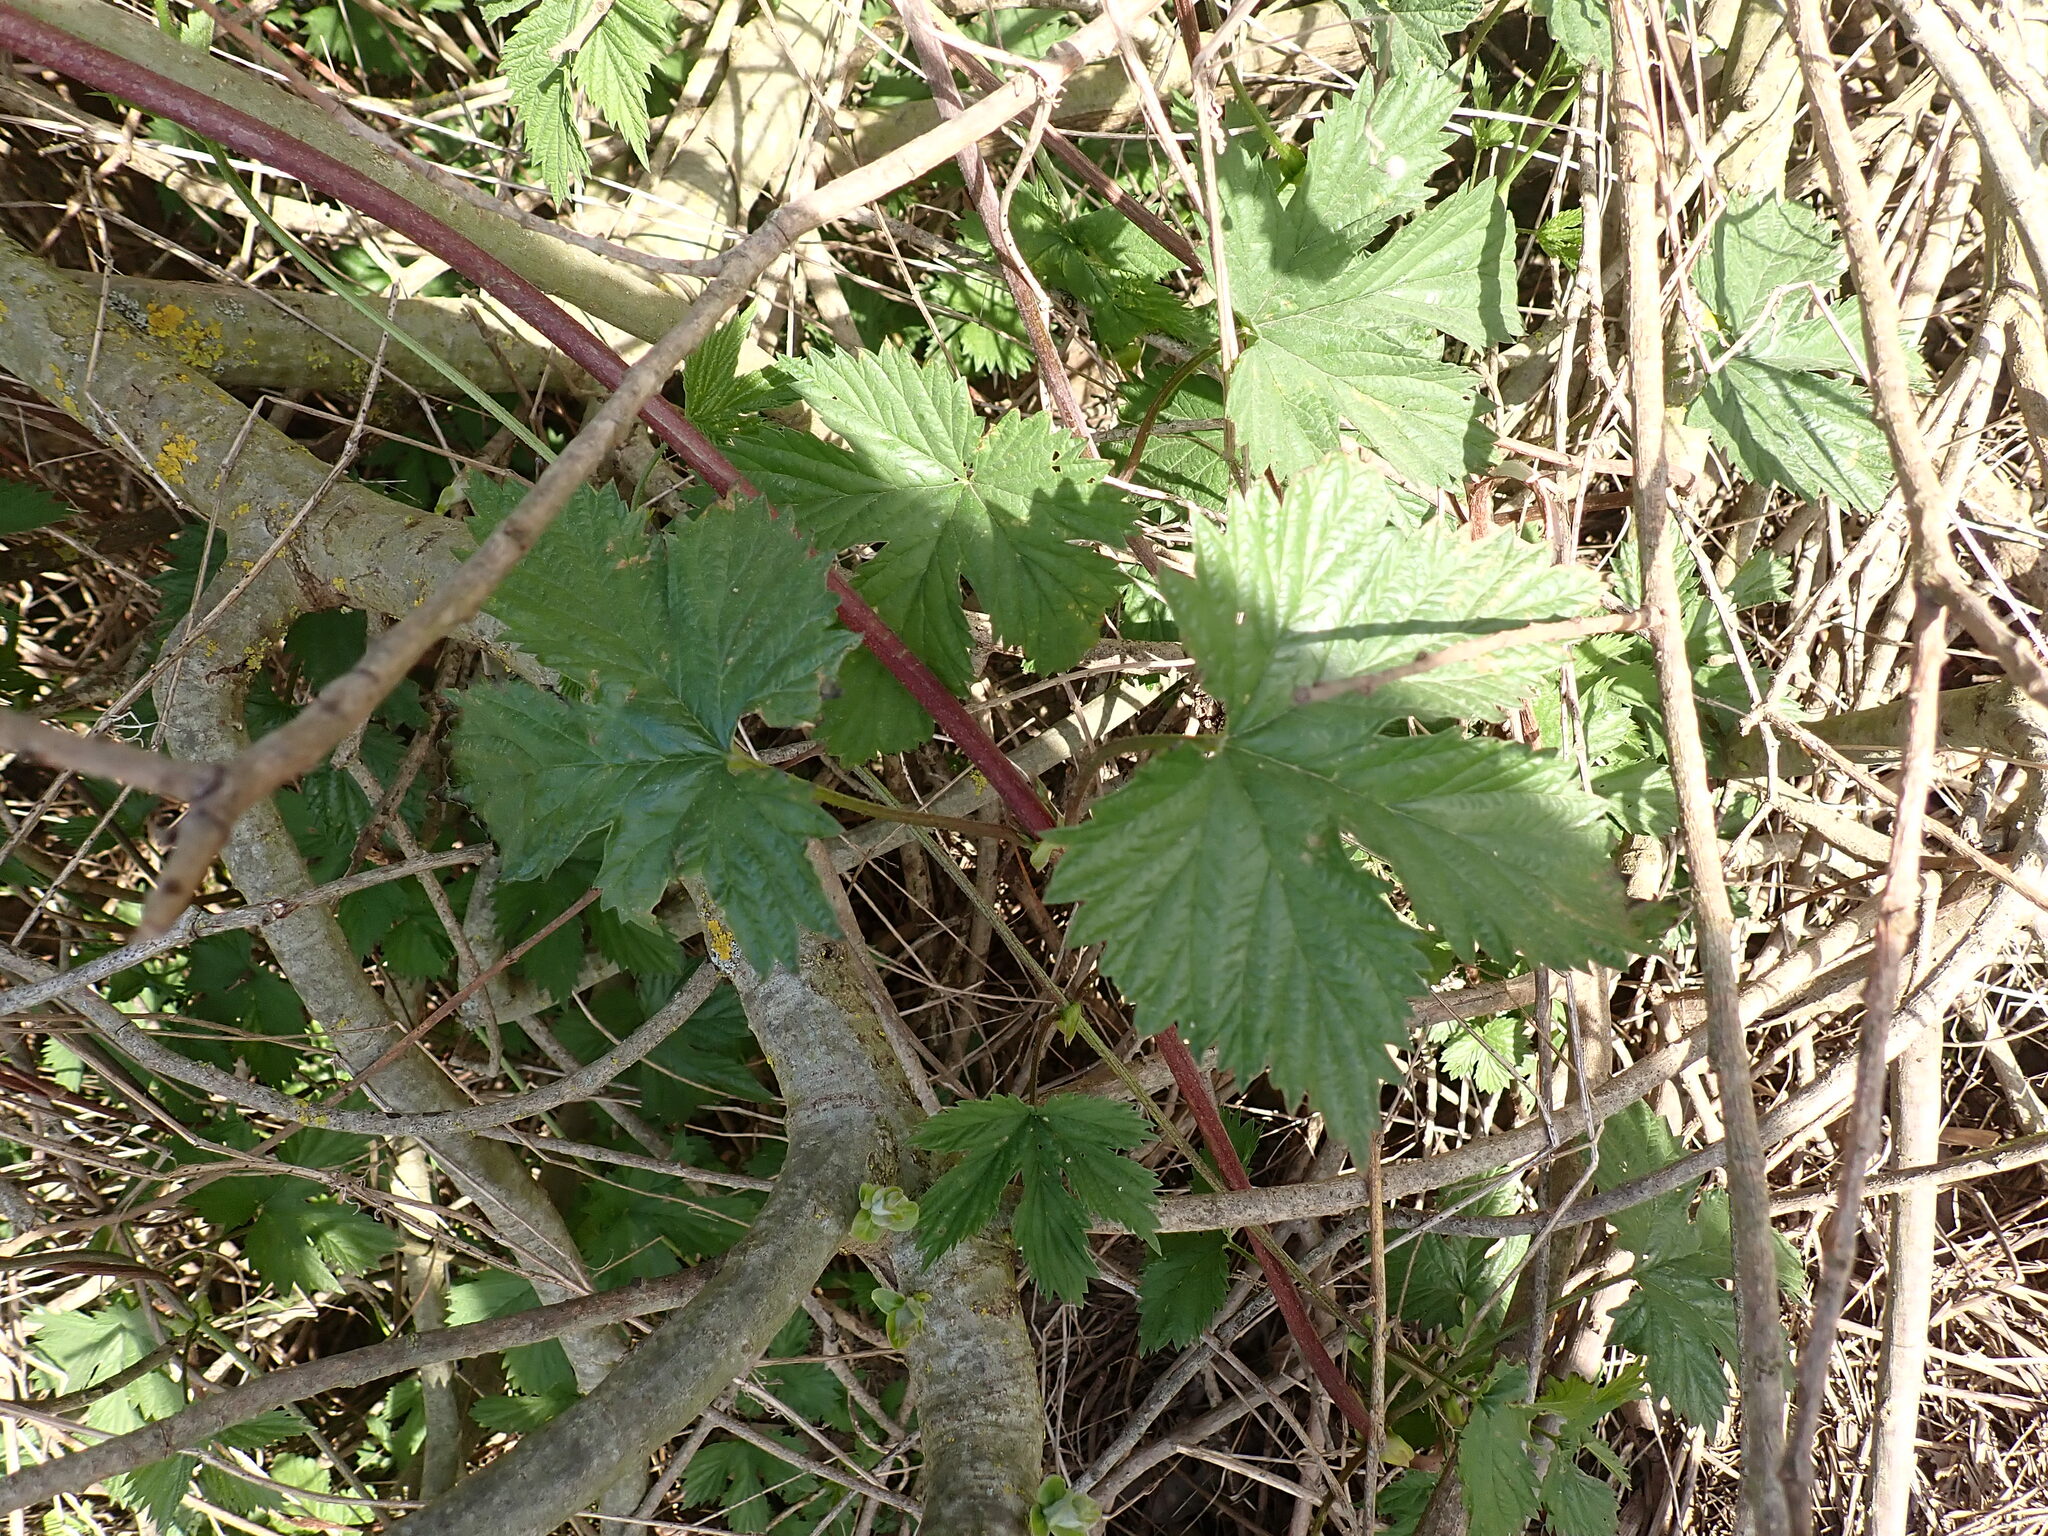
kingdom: Plantae
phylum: Tracheophyta
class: Magnoliopsida
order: Rosales
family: Cannabaceae
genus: Humulus
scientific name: Humulus lupulus
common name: Hop
